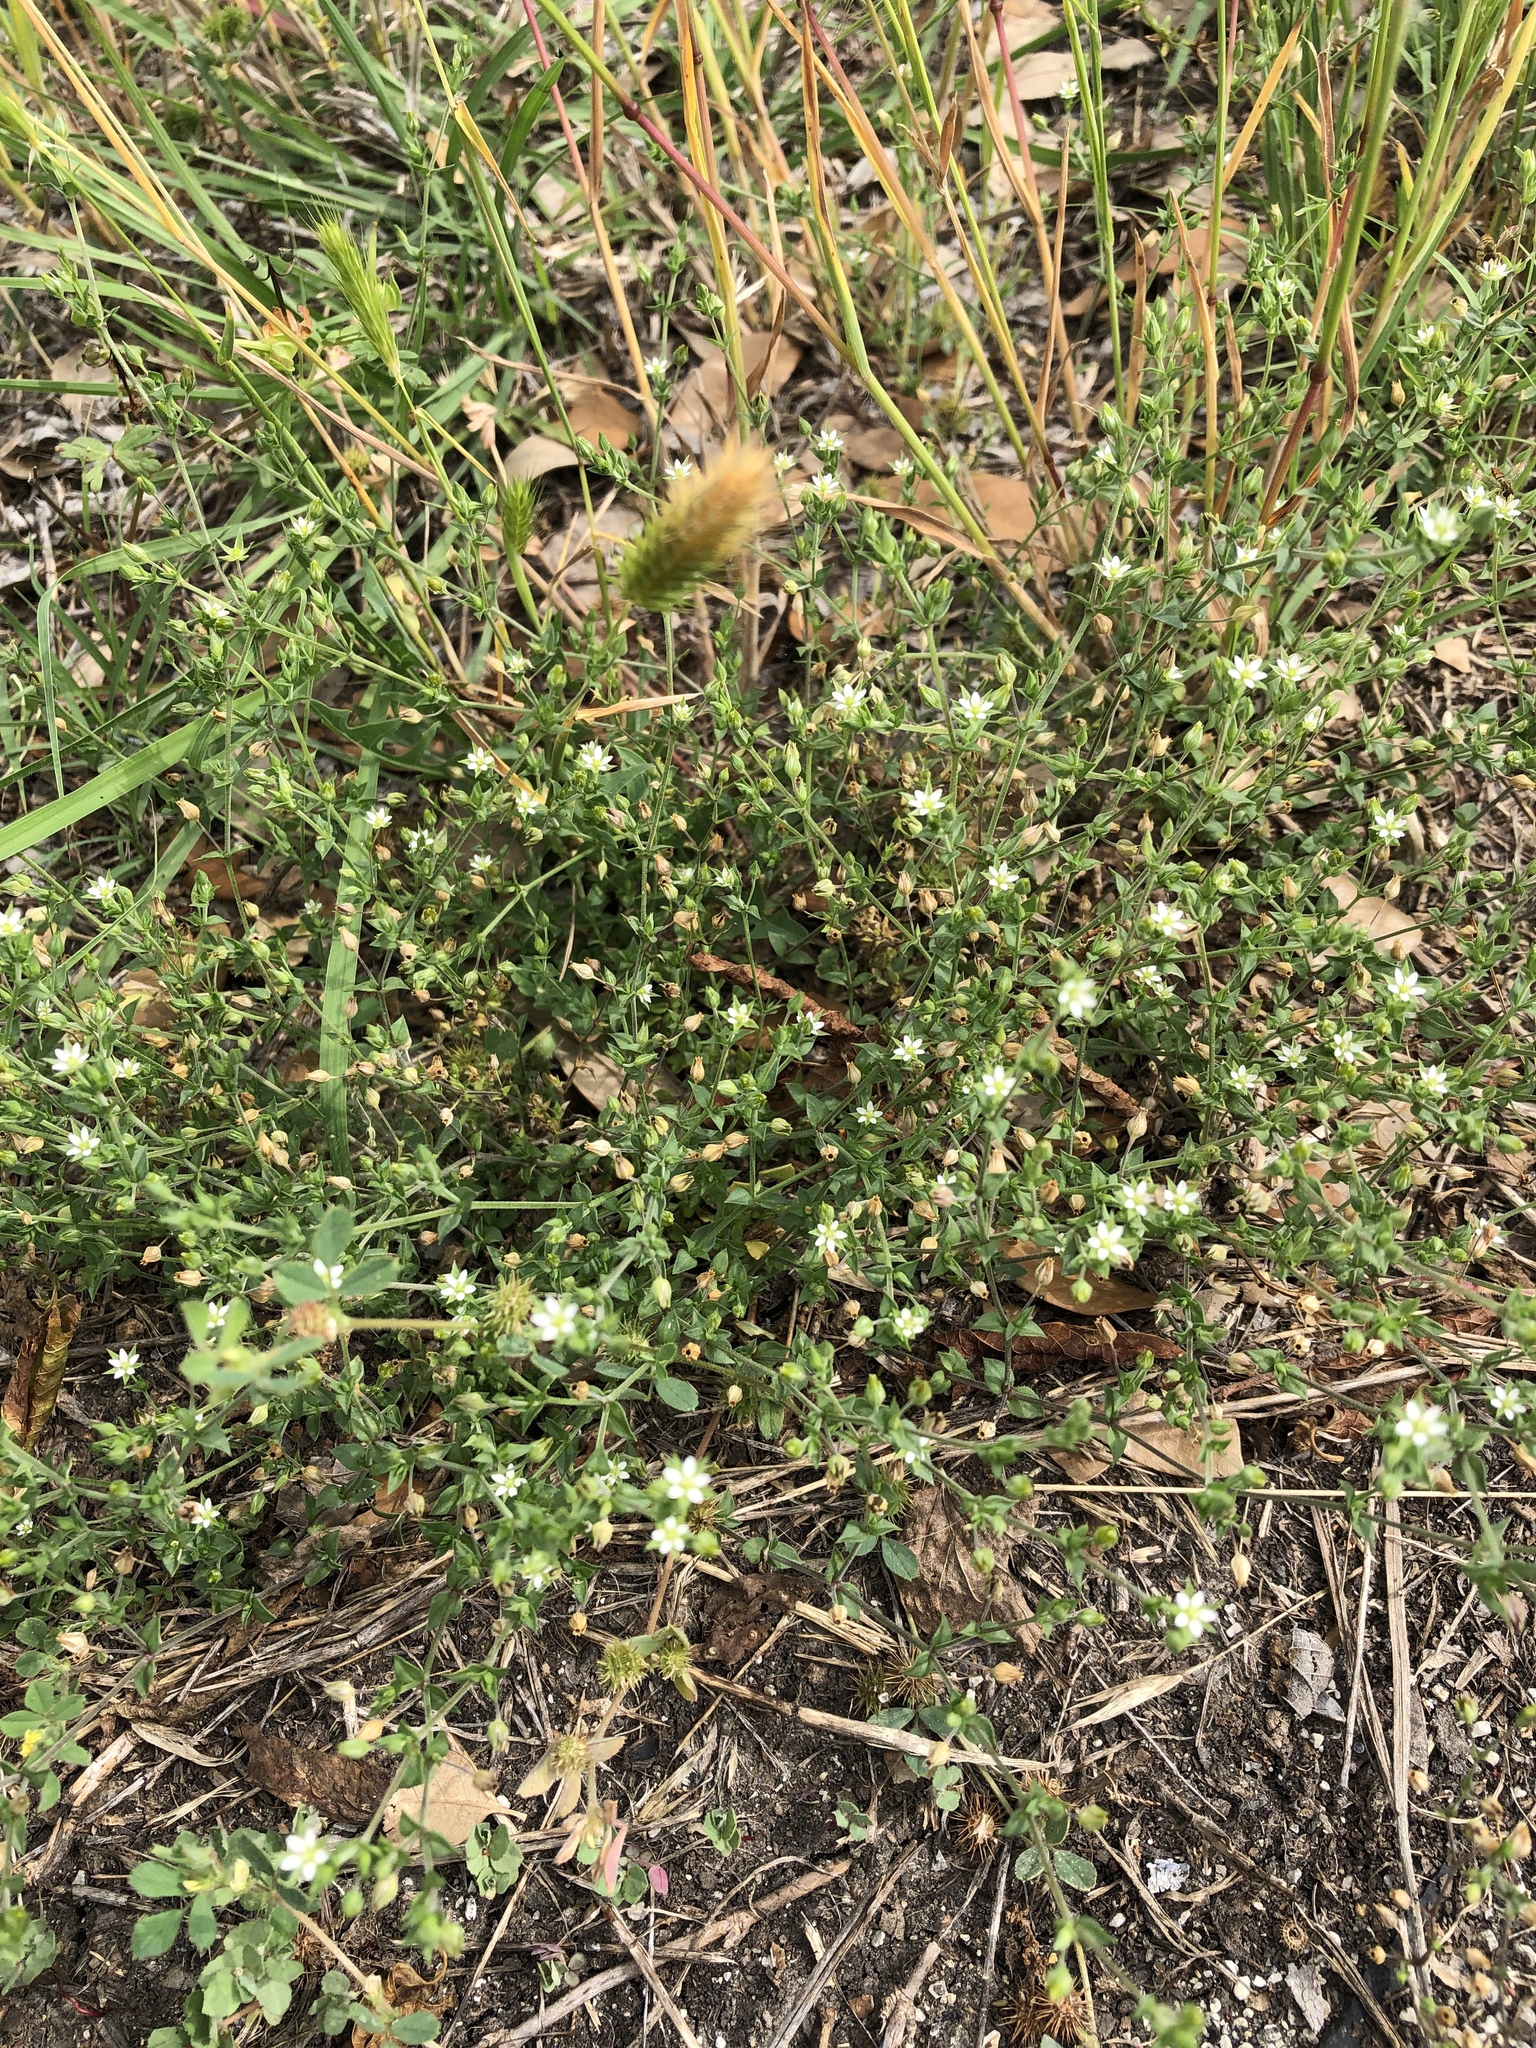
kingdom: Plantae
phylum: Tracheophyta
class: Magnoliopsida
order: Caryophyllales
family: Caryophyllaceae
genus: Arenaria
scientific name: Arenaria serpyllifolia
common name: Thyme-leaved sandwort
